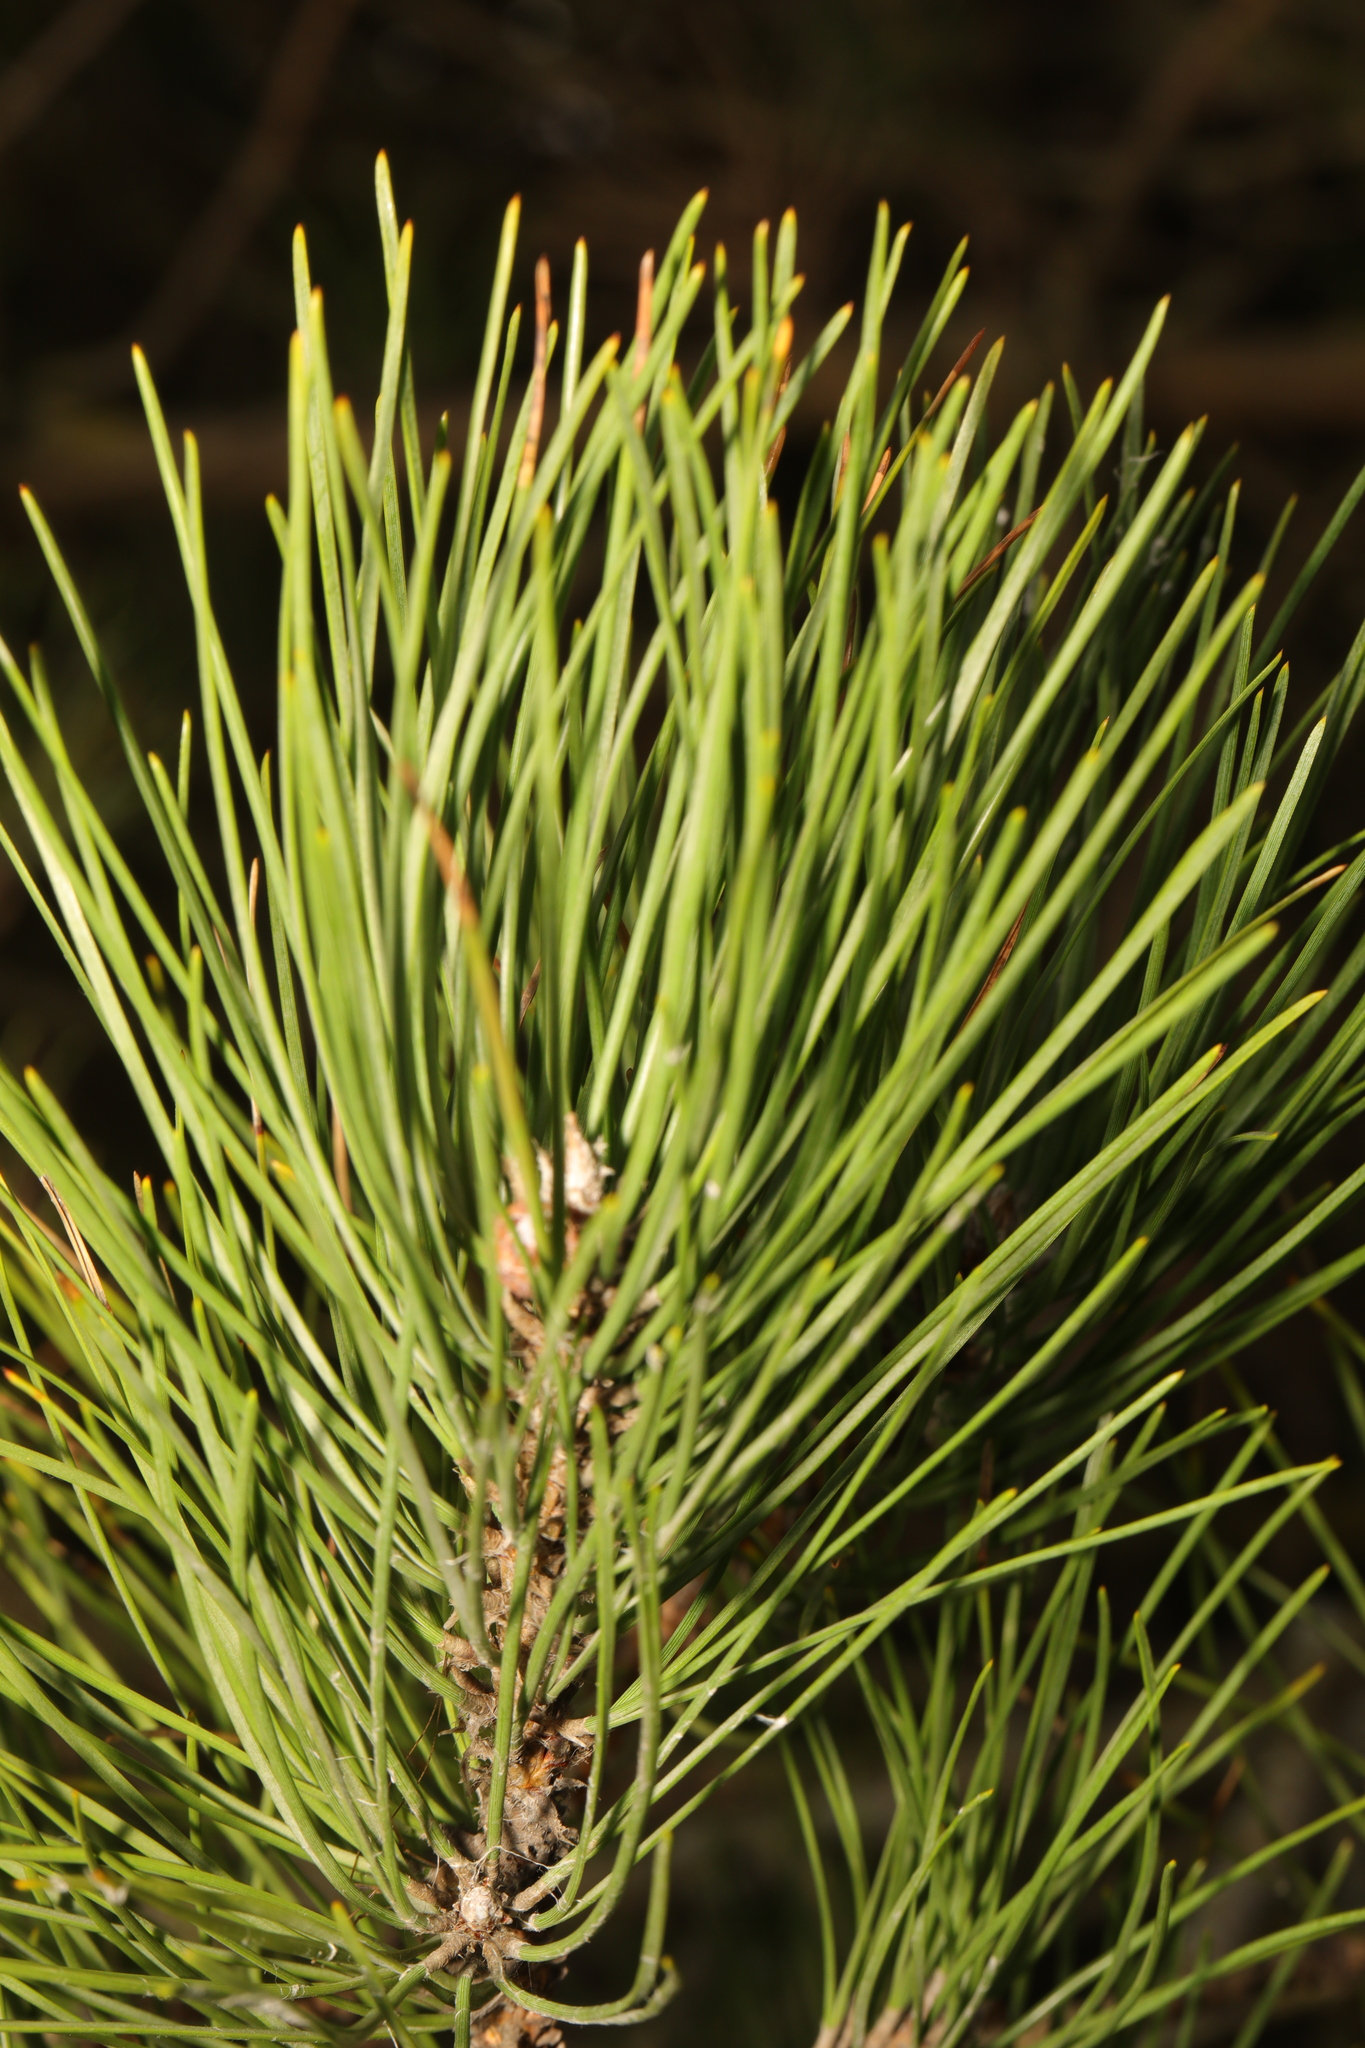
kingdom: Plantae
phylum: Tracheophyta
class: Pinopsida
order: Pinales
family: Pinaceae
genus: Pinus
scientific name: Pinus nigra
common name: Austrian pine
